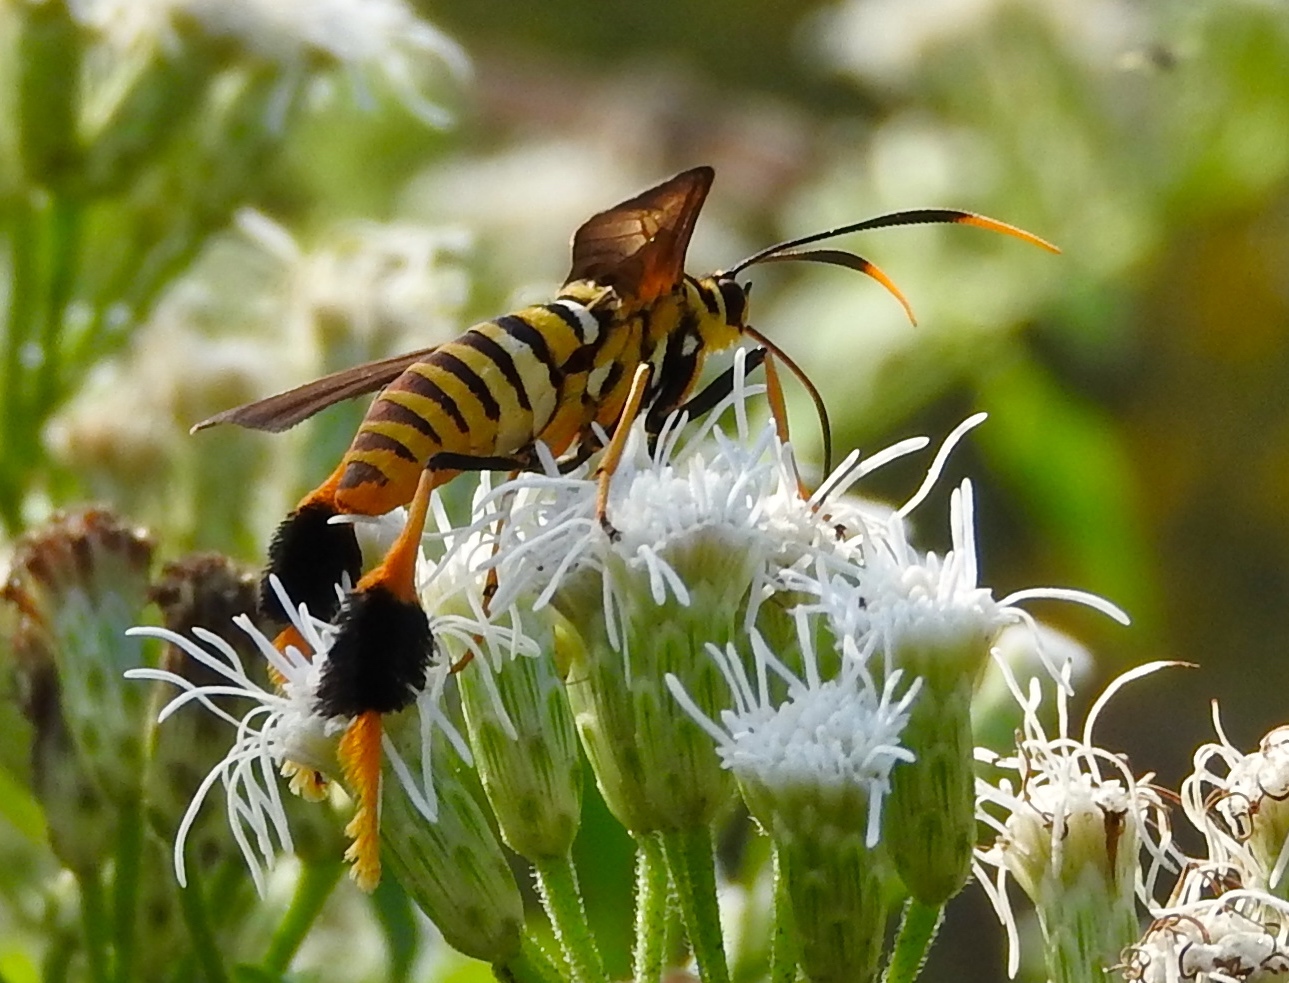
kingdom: Animalia
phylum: Arthropoda
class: Insecta
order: Lepidoptera
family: Erebidae
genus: Horama
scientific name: Horama panthalon
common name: Texas wasp moth
